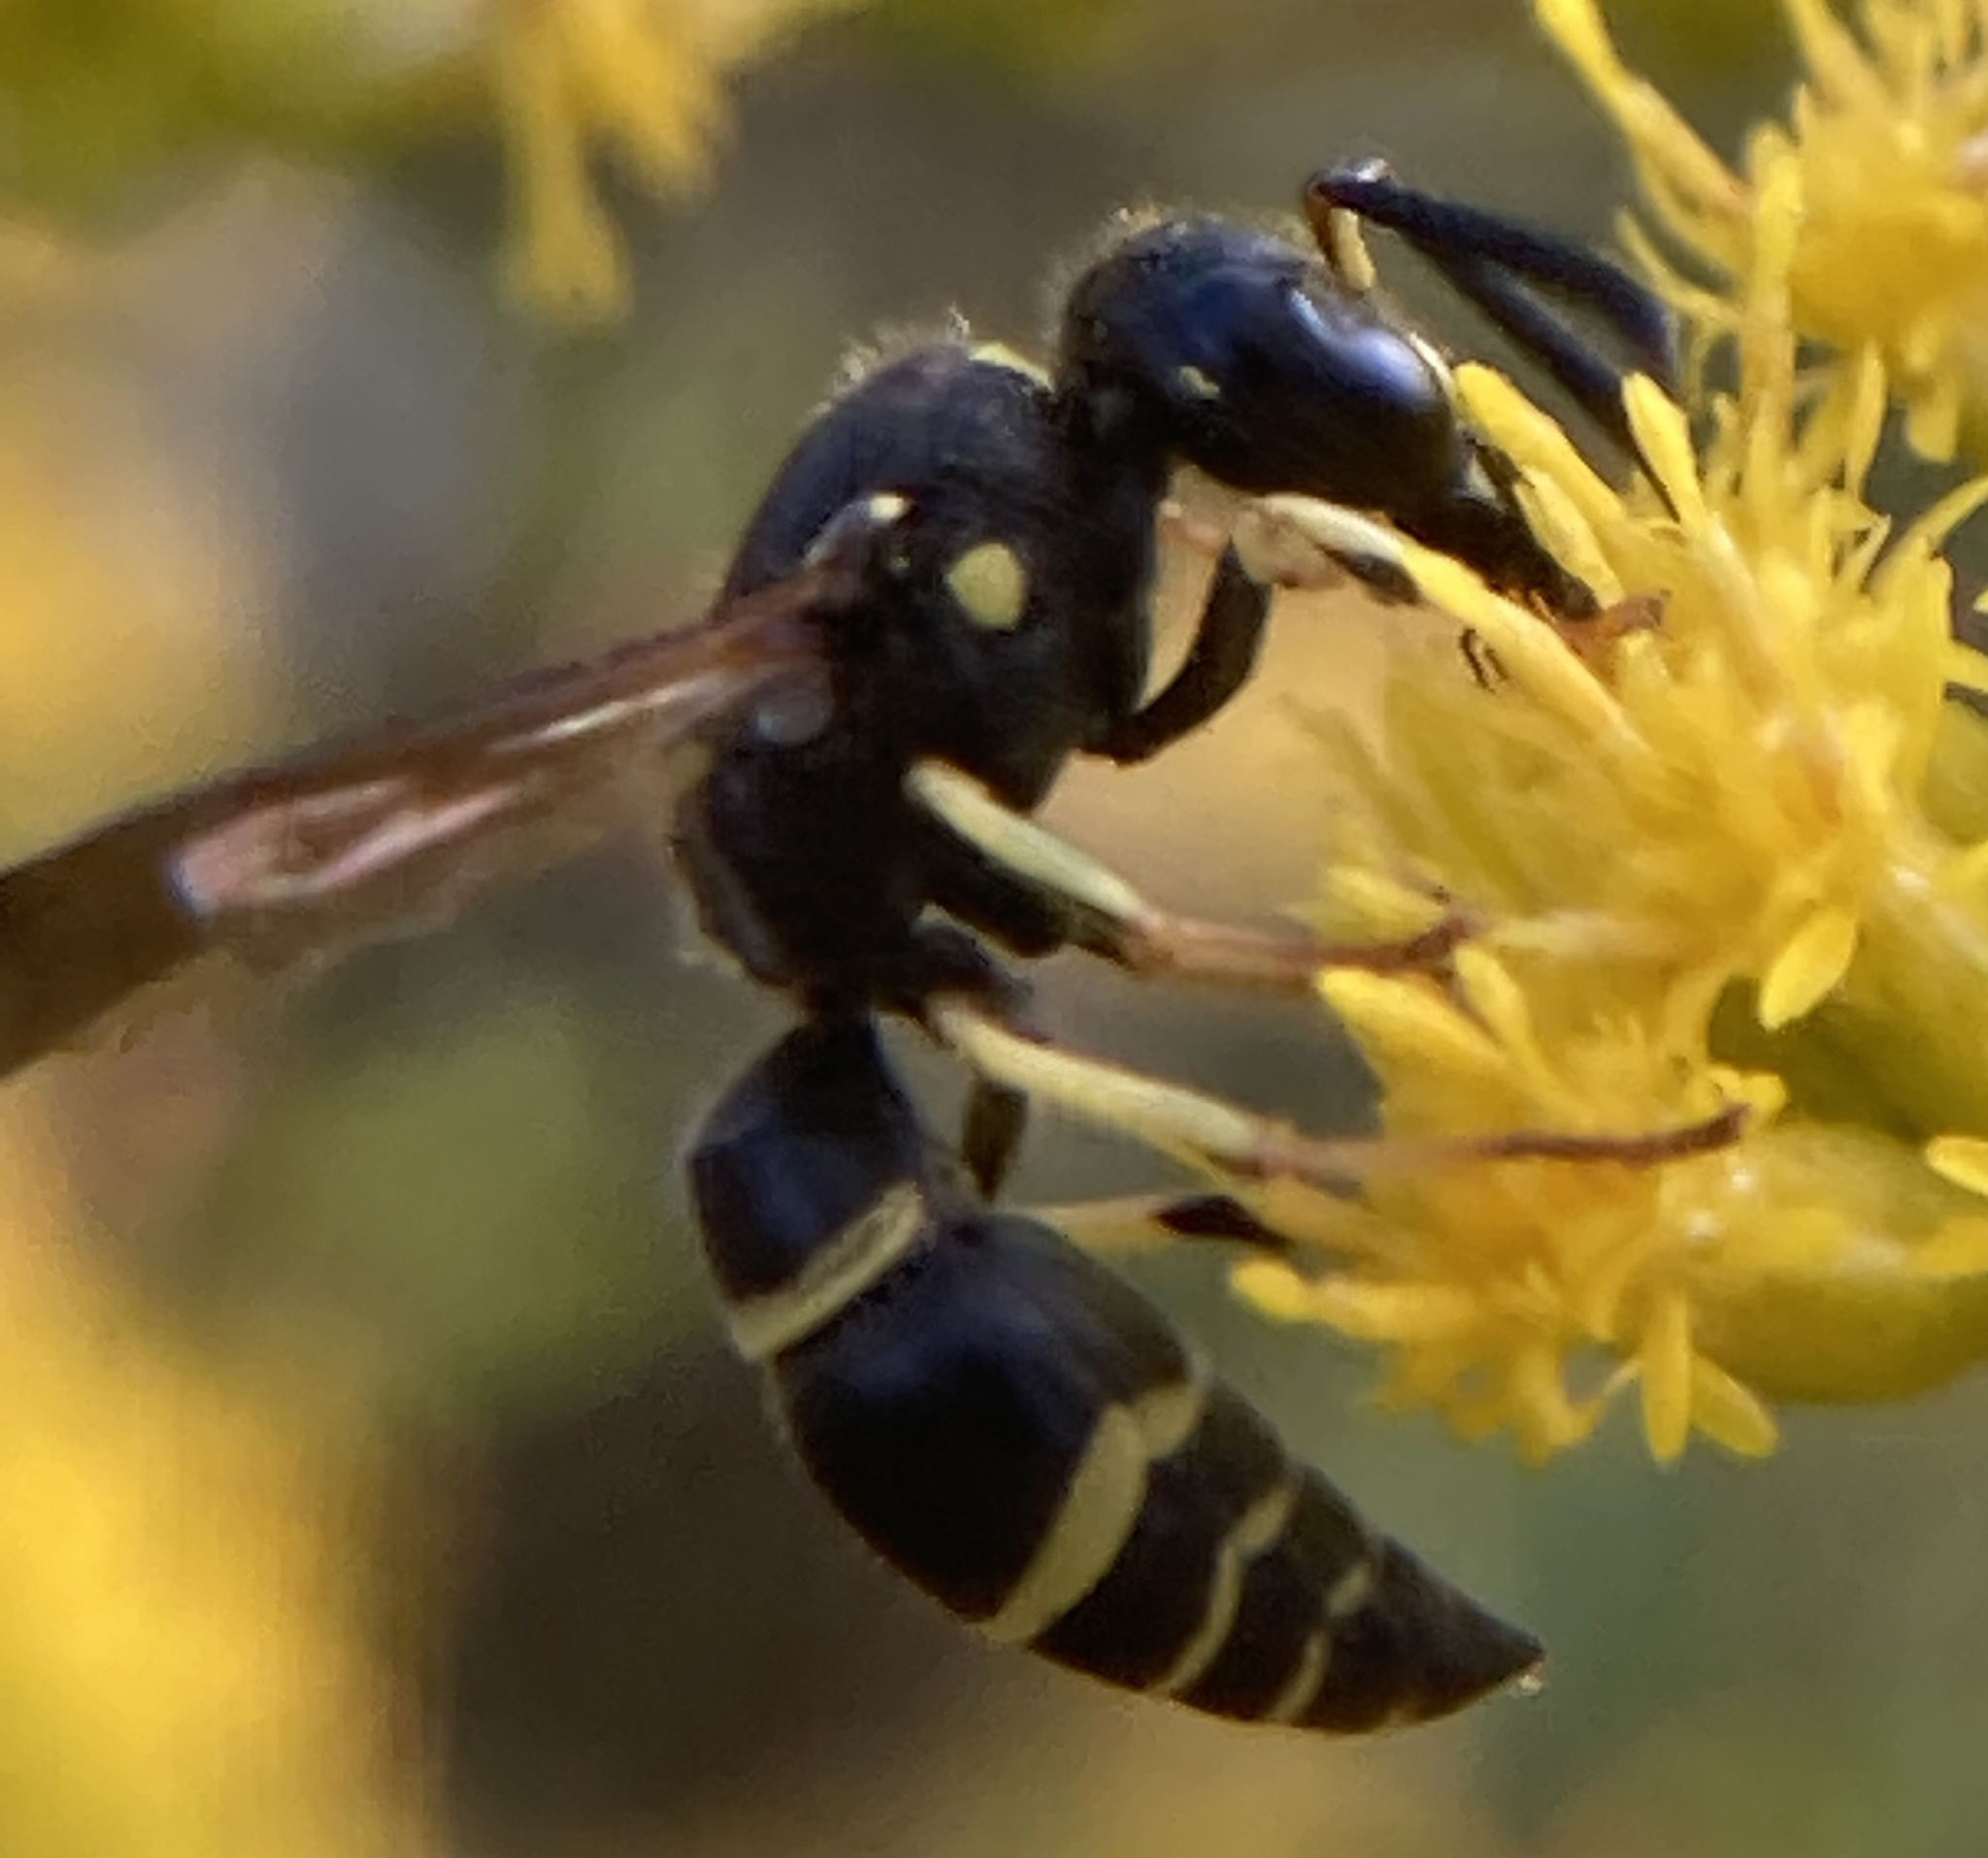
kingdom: Animalia
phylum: Arthropoda
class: Insecta
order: Hymenoptera
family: Vespidae
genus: Ancistrocerus
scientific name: Ancistrocerus adiabatus
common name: Bramble mason wasp
